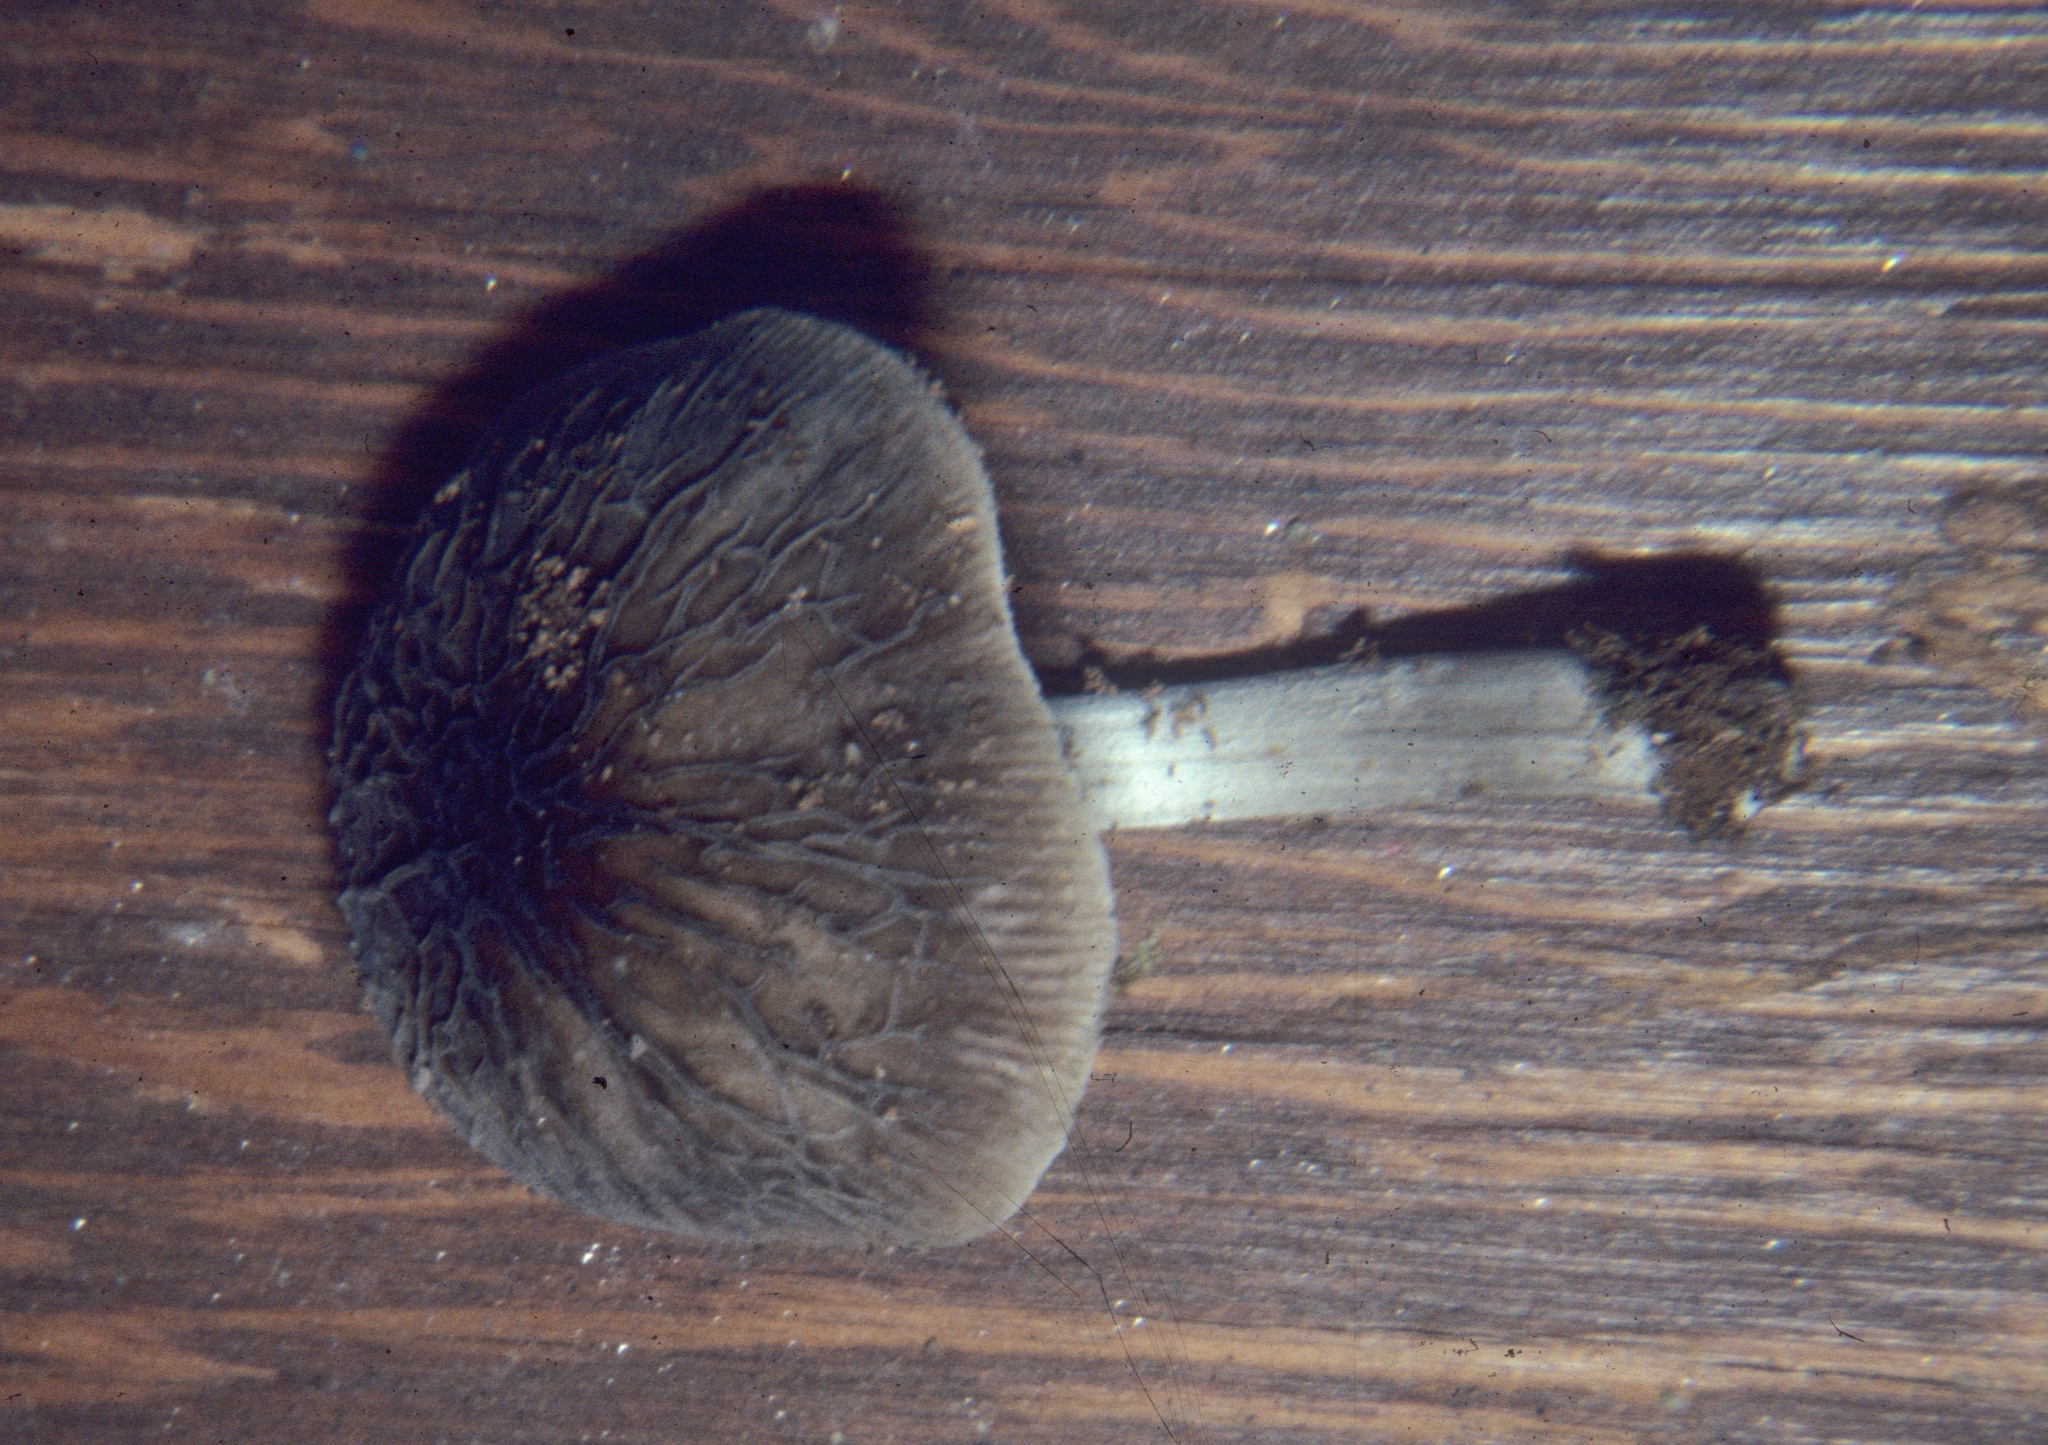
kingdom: Fungi
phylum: Basidiomycota
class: Agaricomycetes
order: Agaricales
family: Pluteaceae
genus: Pluteus
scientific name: Pluteus thomsonii
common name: Veined shield
